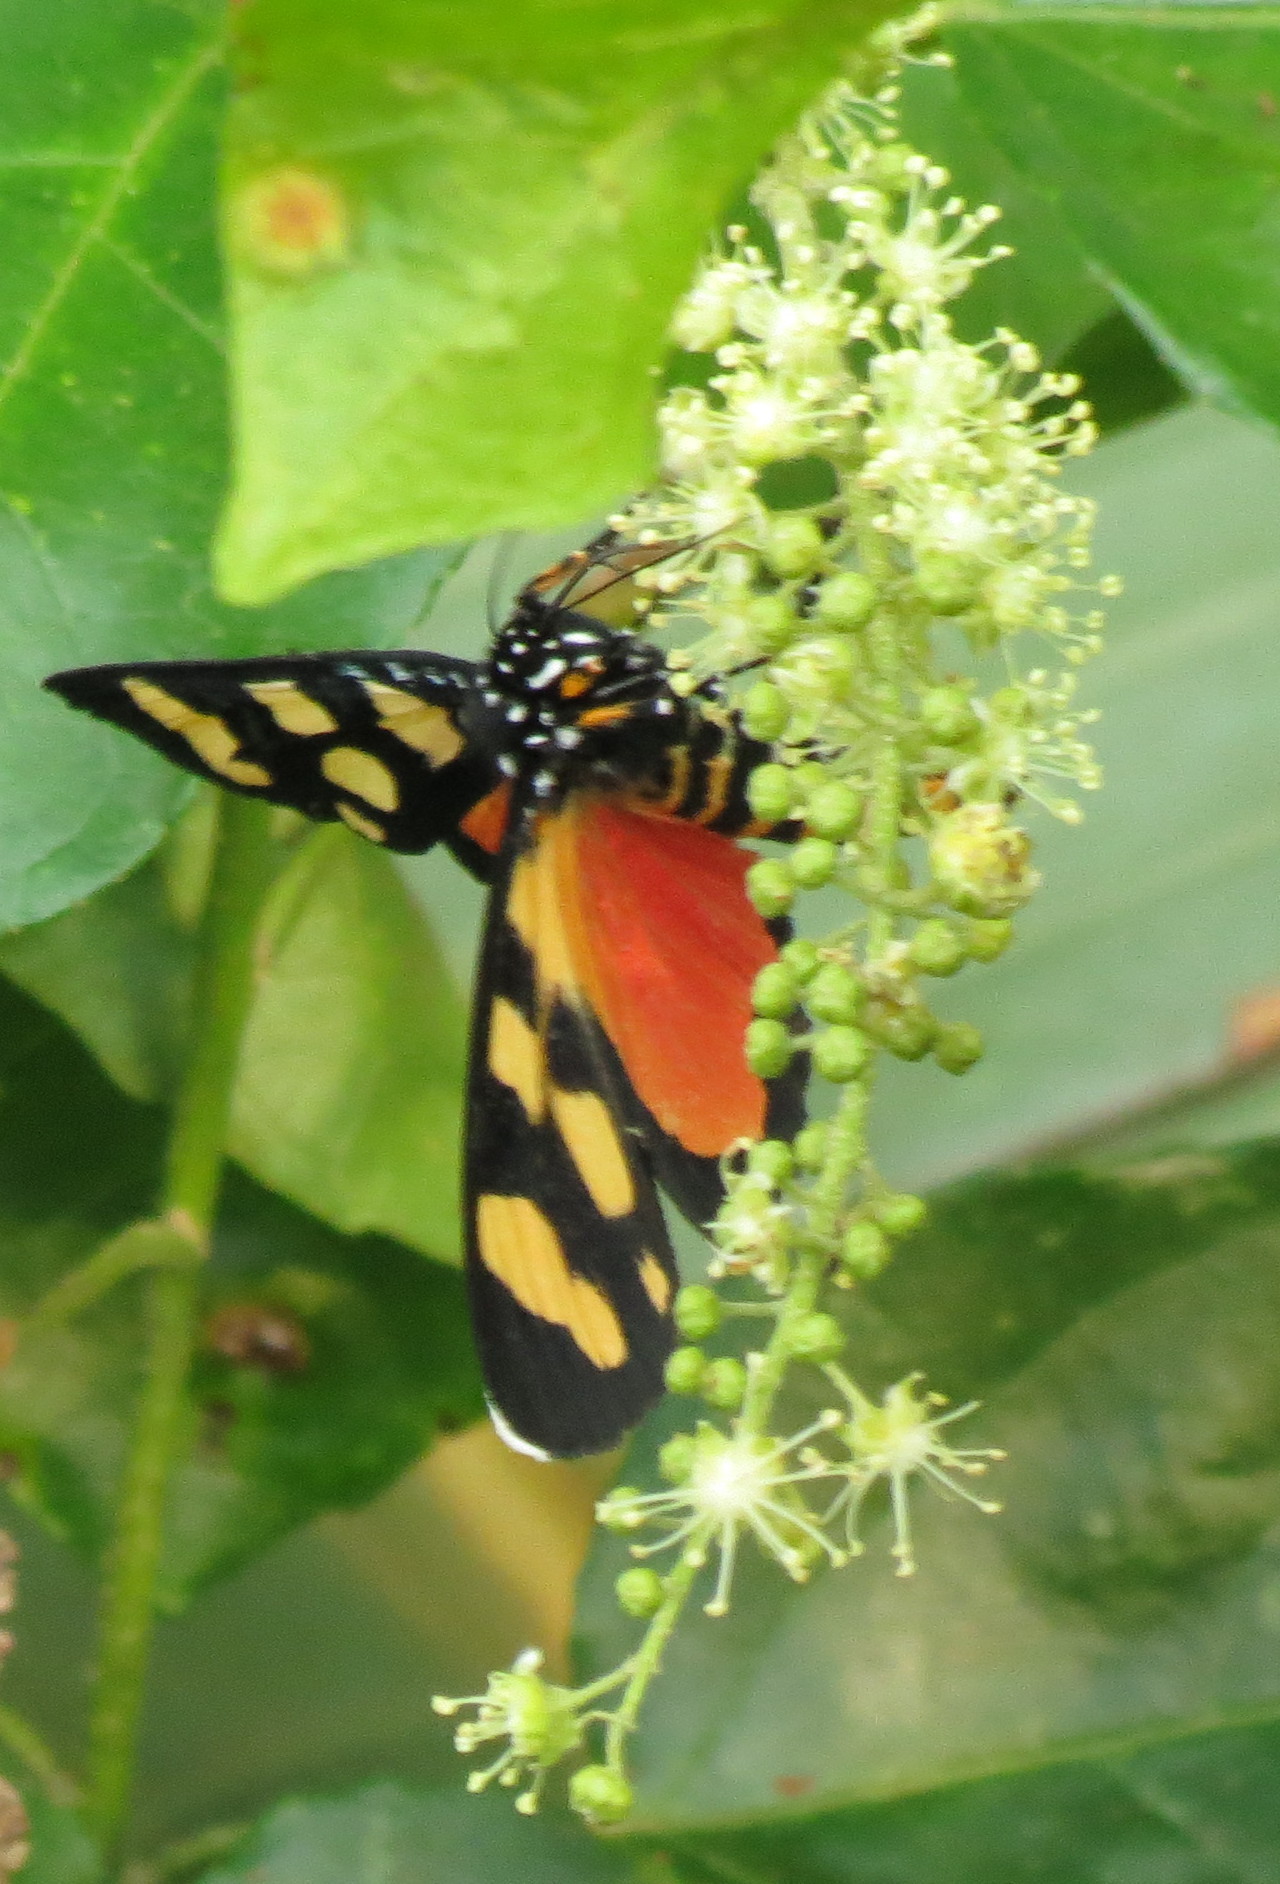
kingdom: Animalia
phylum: Arthropoda
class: Insecta
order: Lepidoptera
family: Noctuidae
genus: Heraclia
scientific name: Heraclia africana
